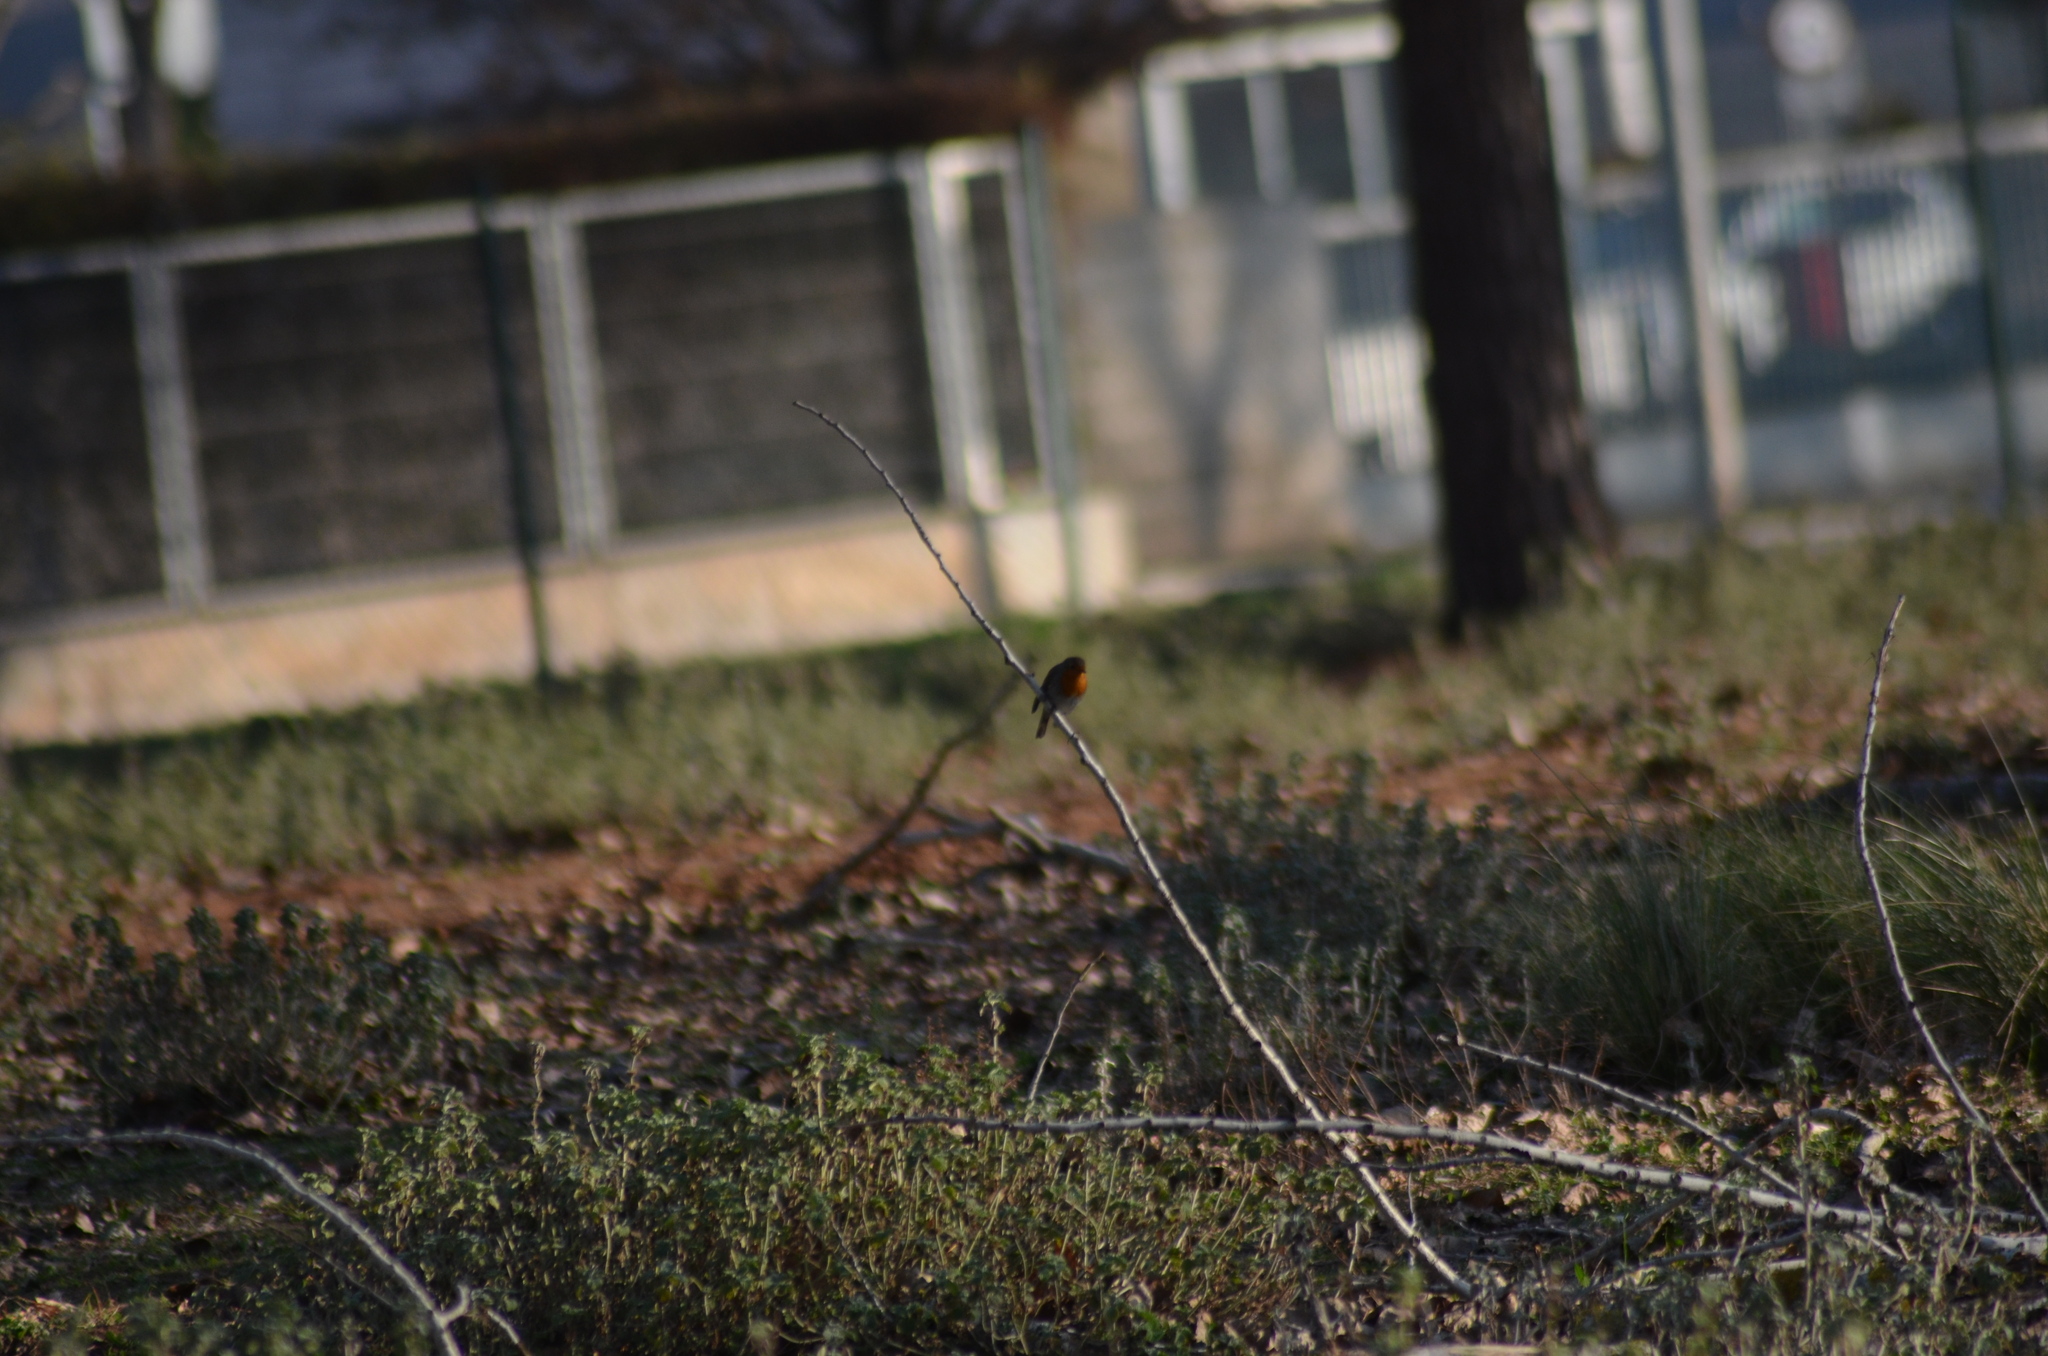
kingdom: Animalia
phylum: Chordata
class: Aves
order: Passeriformes
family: Muscicapidae
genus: Erithacus
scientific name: Erithacus rubecula
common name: European robin
